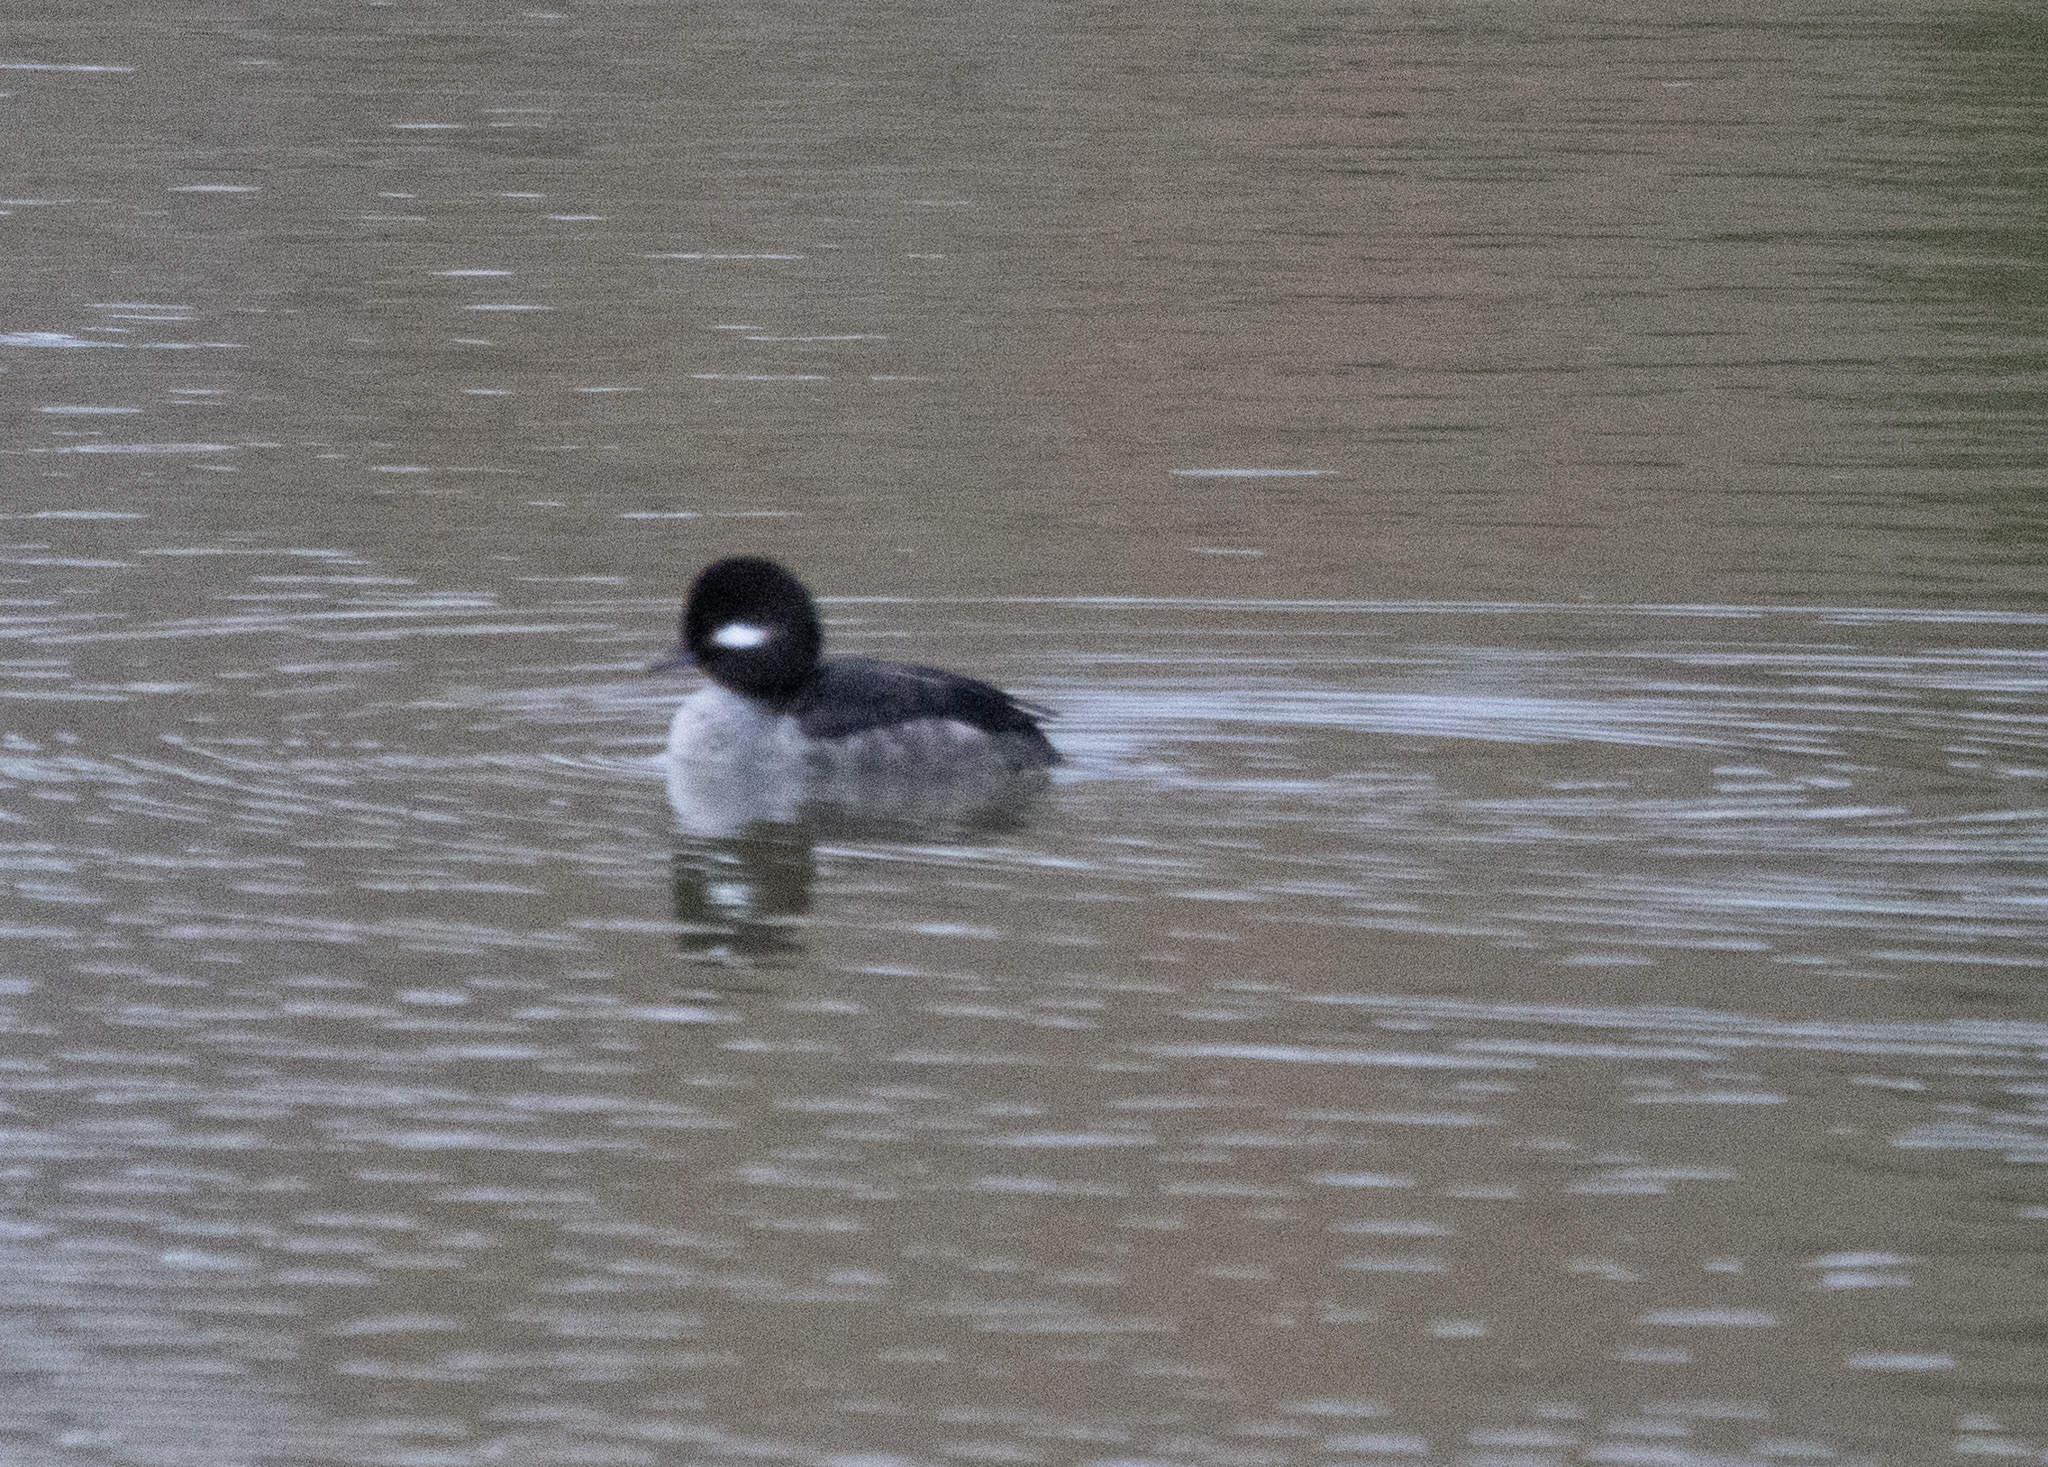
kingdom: Animalia
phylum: Chordata
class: Aves
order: Anseriformes
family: Anatidae
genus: Bucephala
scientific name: Bucephala albeola
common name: Bufflehead
